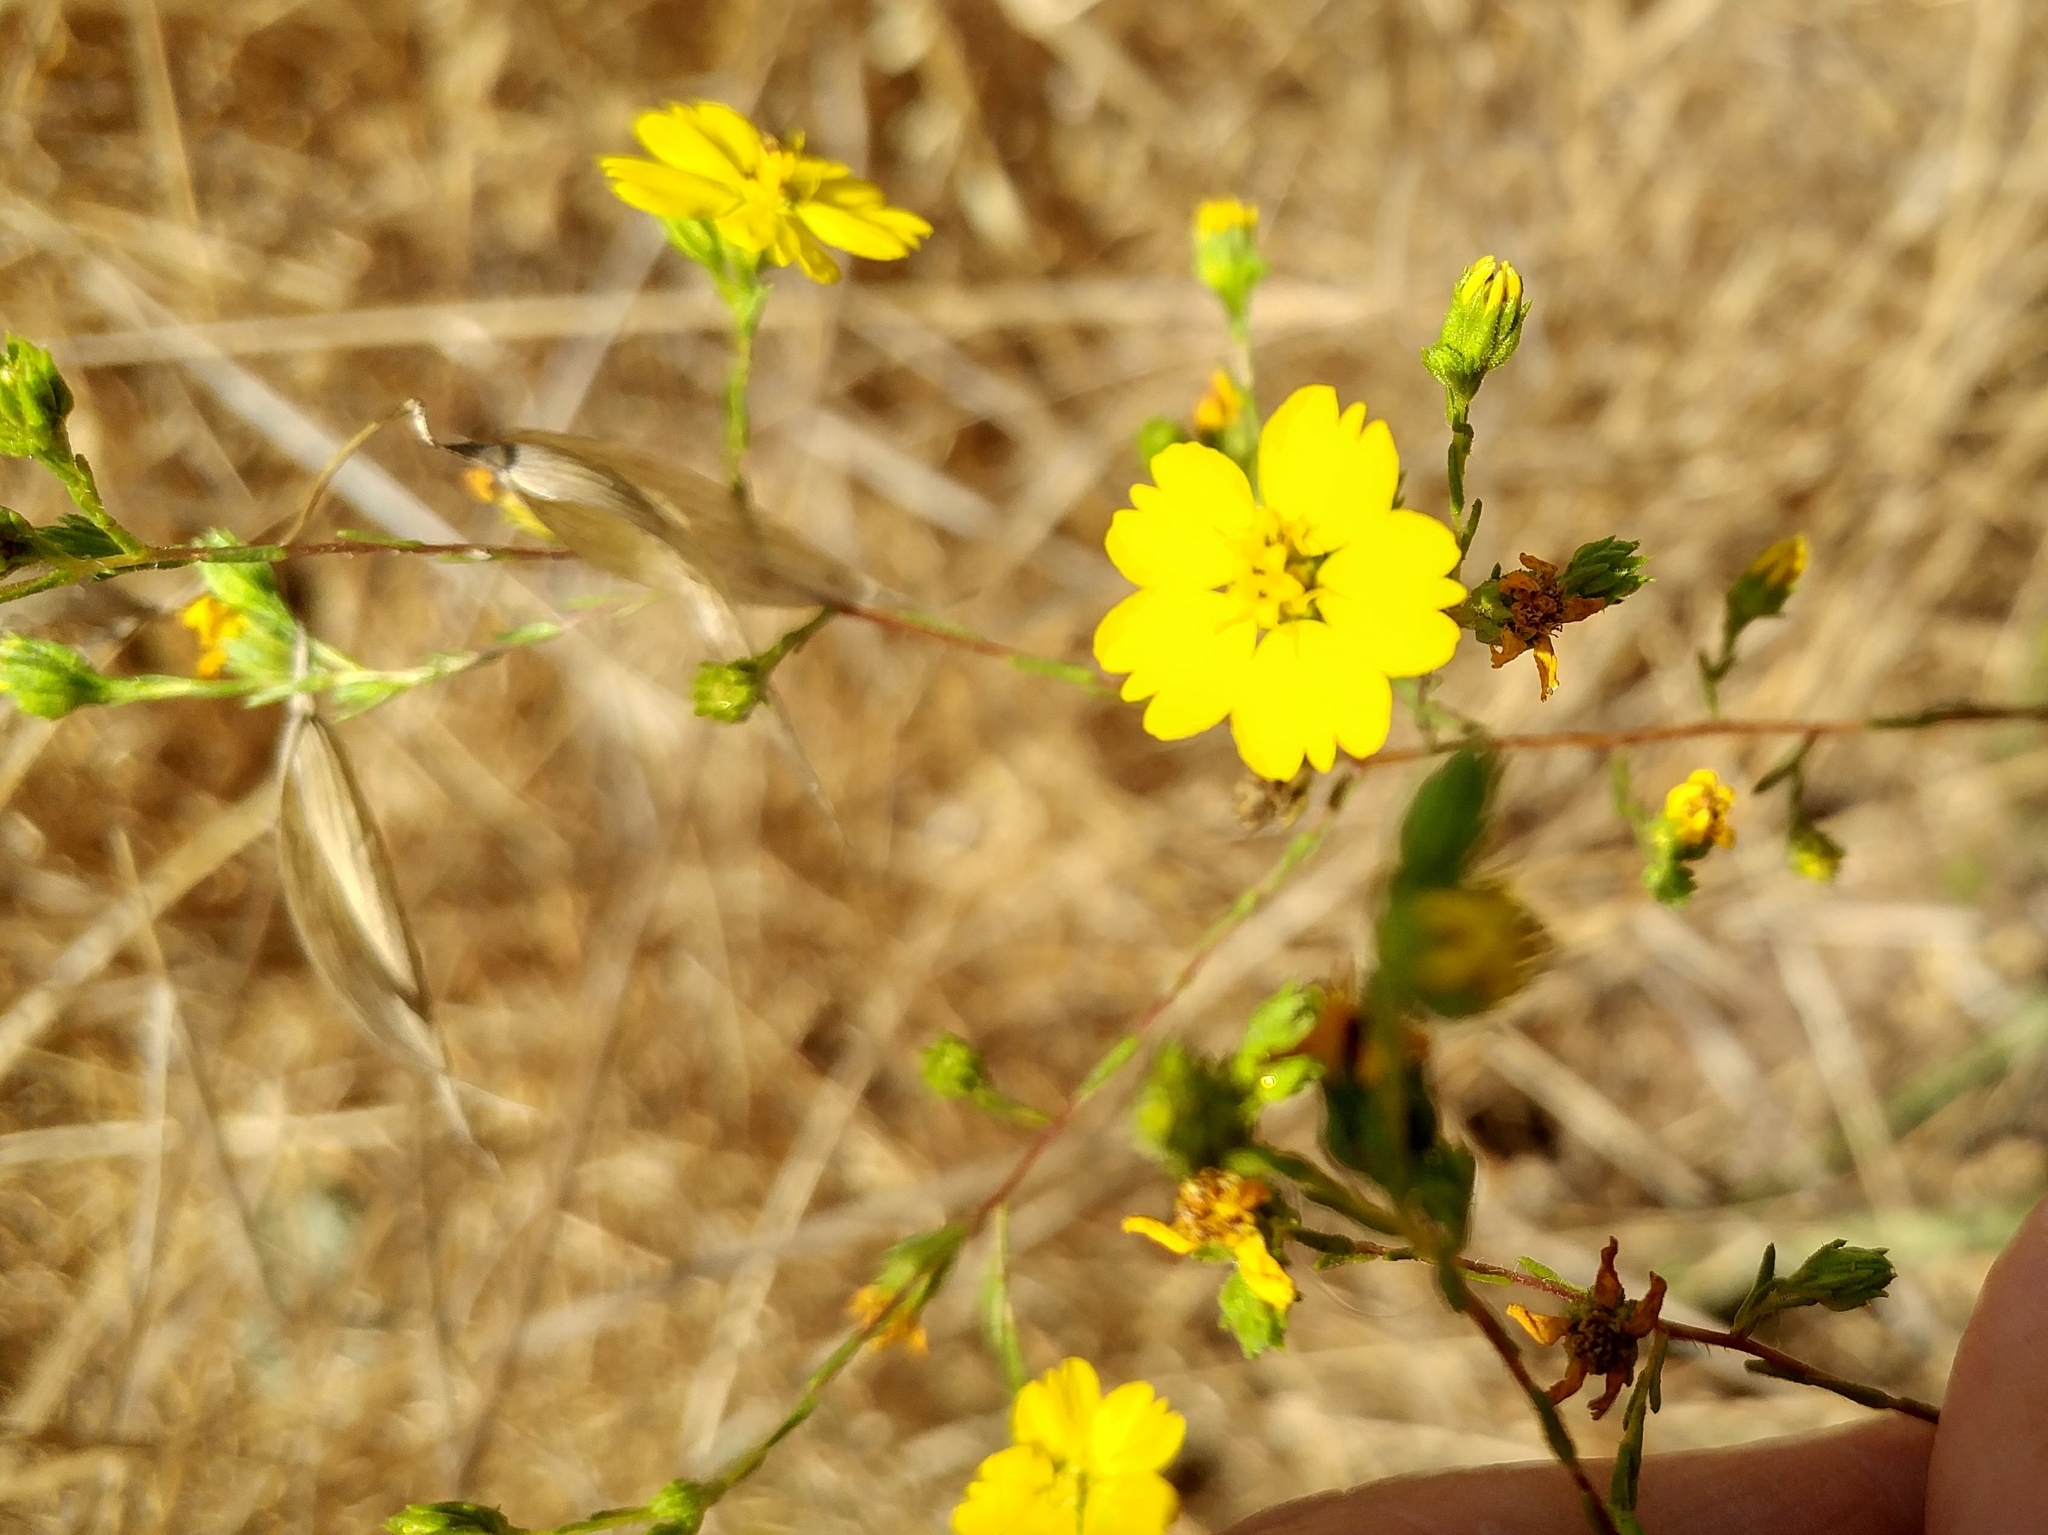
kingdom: Plantae
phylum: Tracheophyta
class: Magnoliopsida
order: Asterales
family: Asteraceae
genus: Deinandra
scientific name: Deinandra fasciculata
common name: Clustered tarweed
